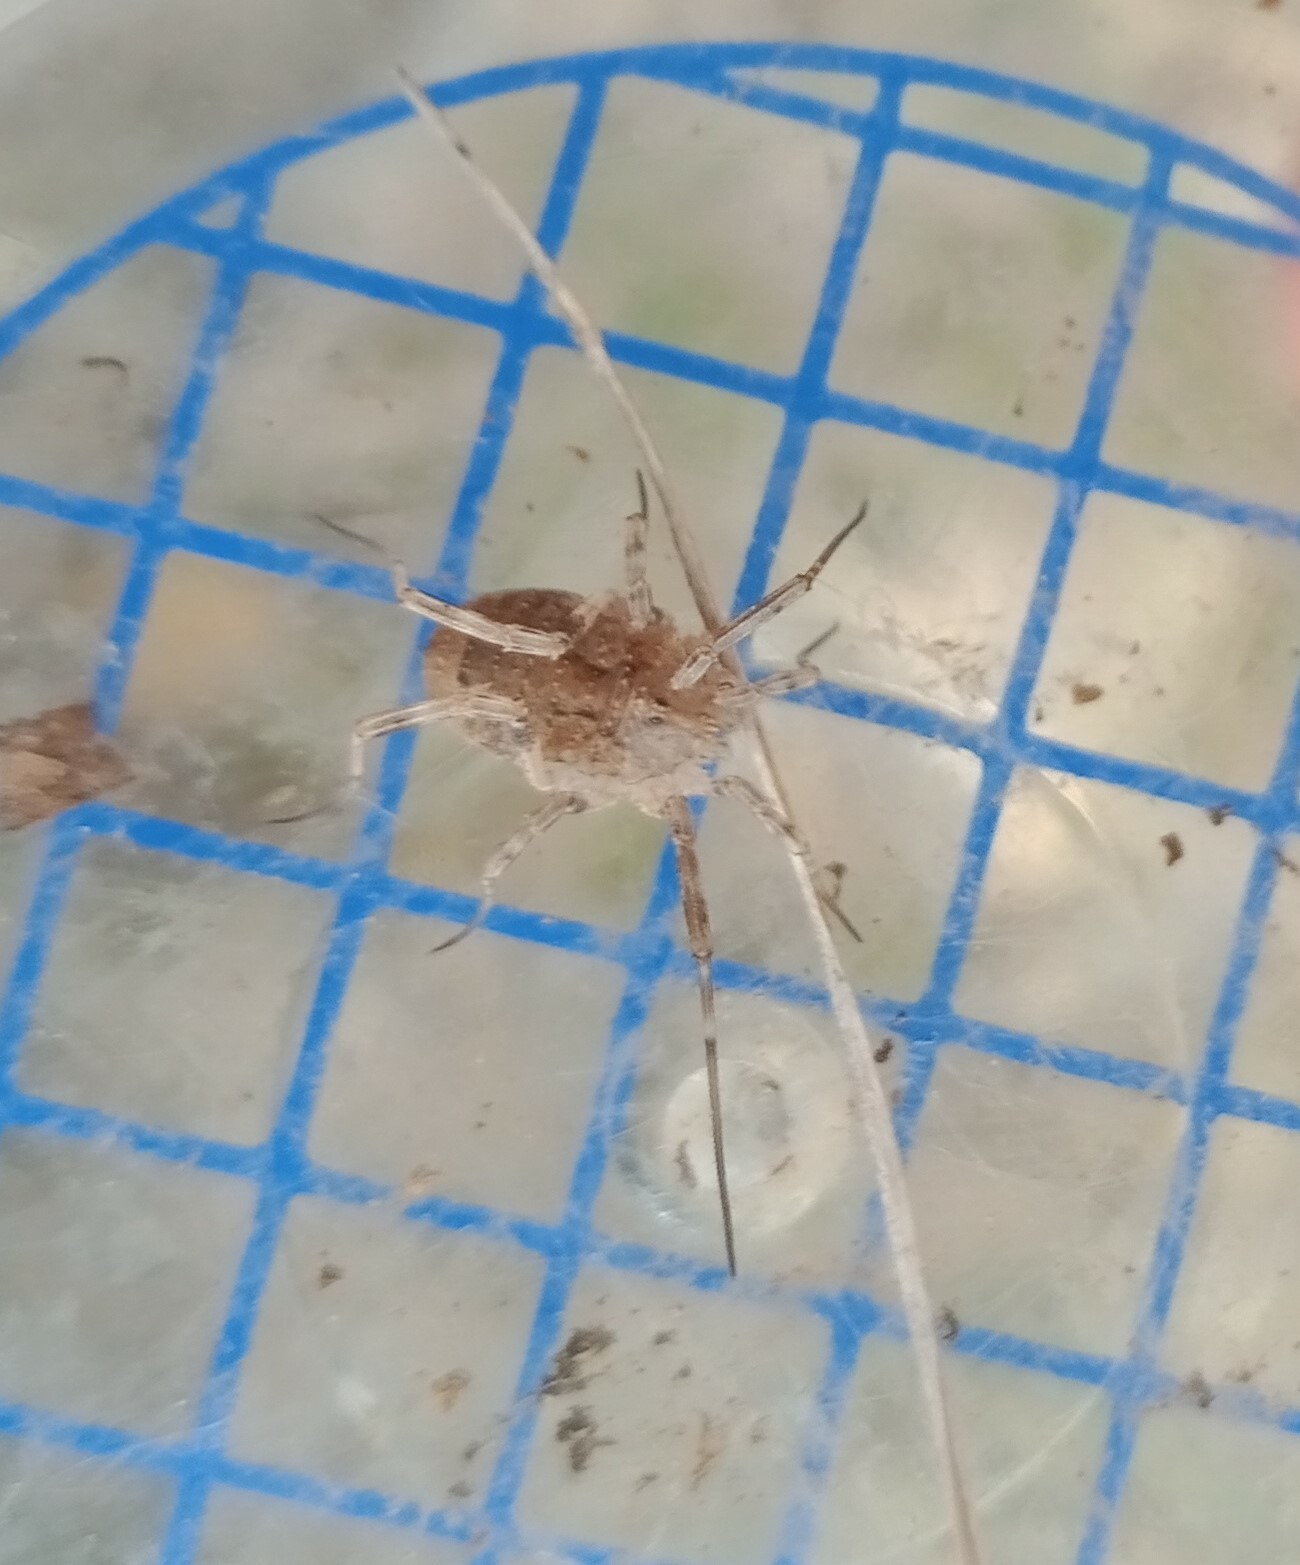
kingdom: Animalia
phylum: Arthropoda
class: Arachnida
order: Opiliones
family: Phalangiidae
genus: Odiellus
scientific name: Odiellus spinosus
